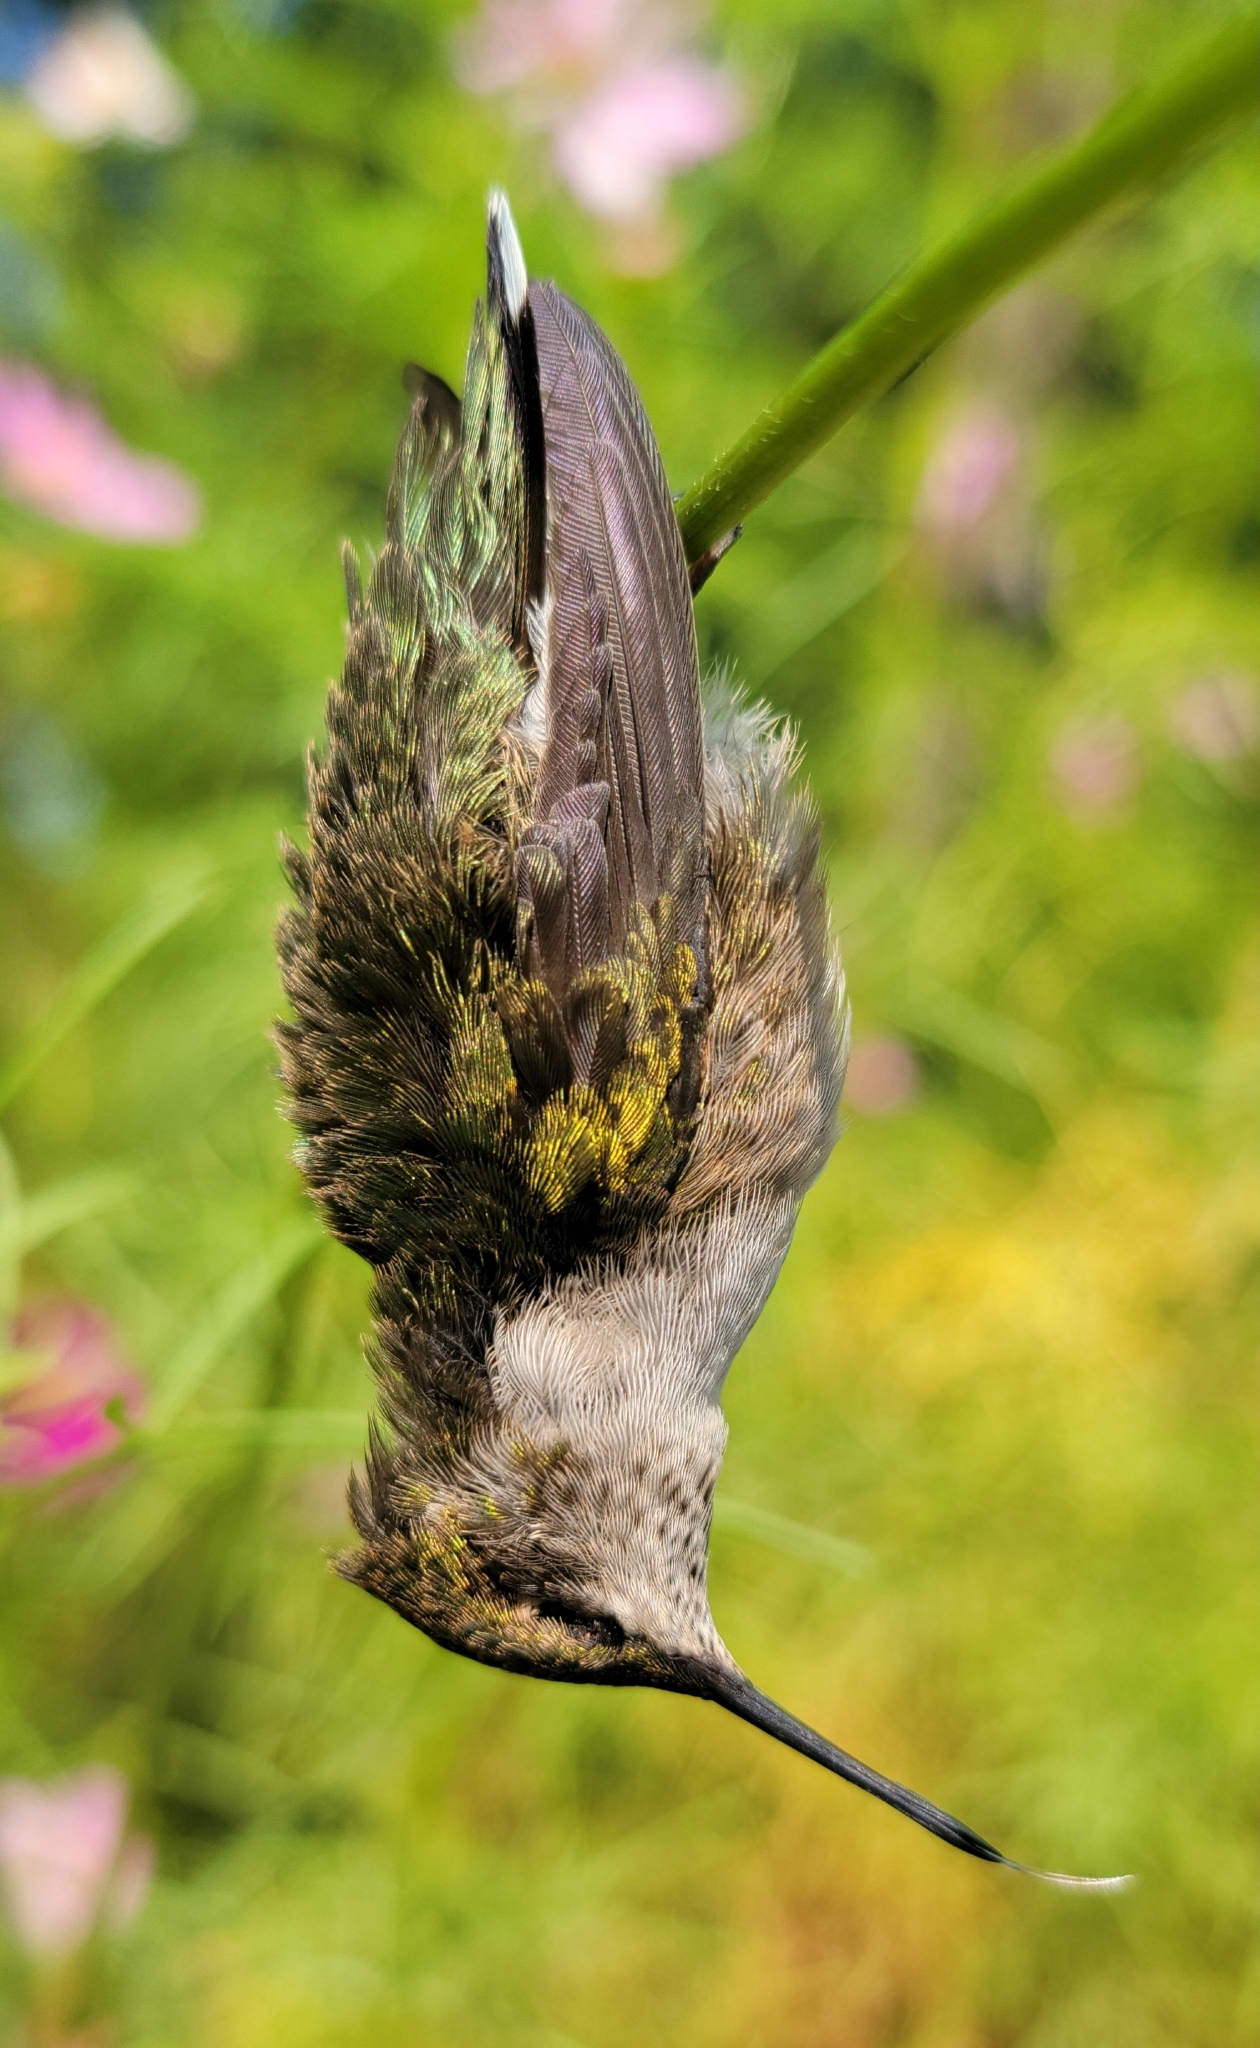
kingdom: Animalia
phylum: Chordata
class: Aves
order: Apodiformes
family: Trochilidae
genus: Archilochus
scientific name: Archilochus colubris
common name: Ruby-throated hummingbird
